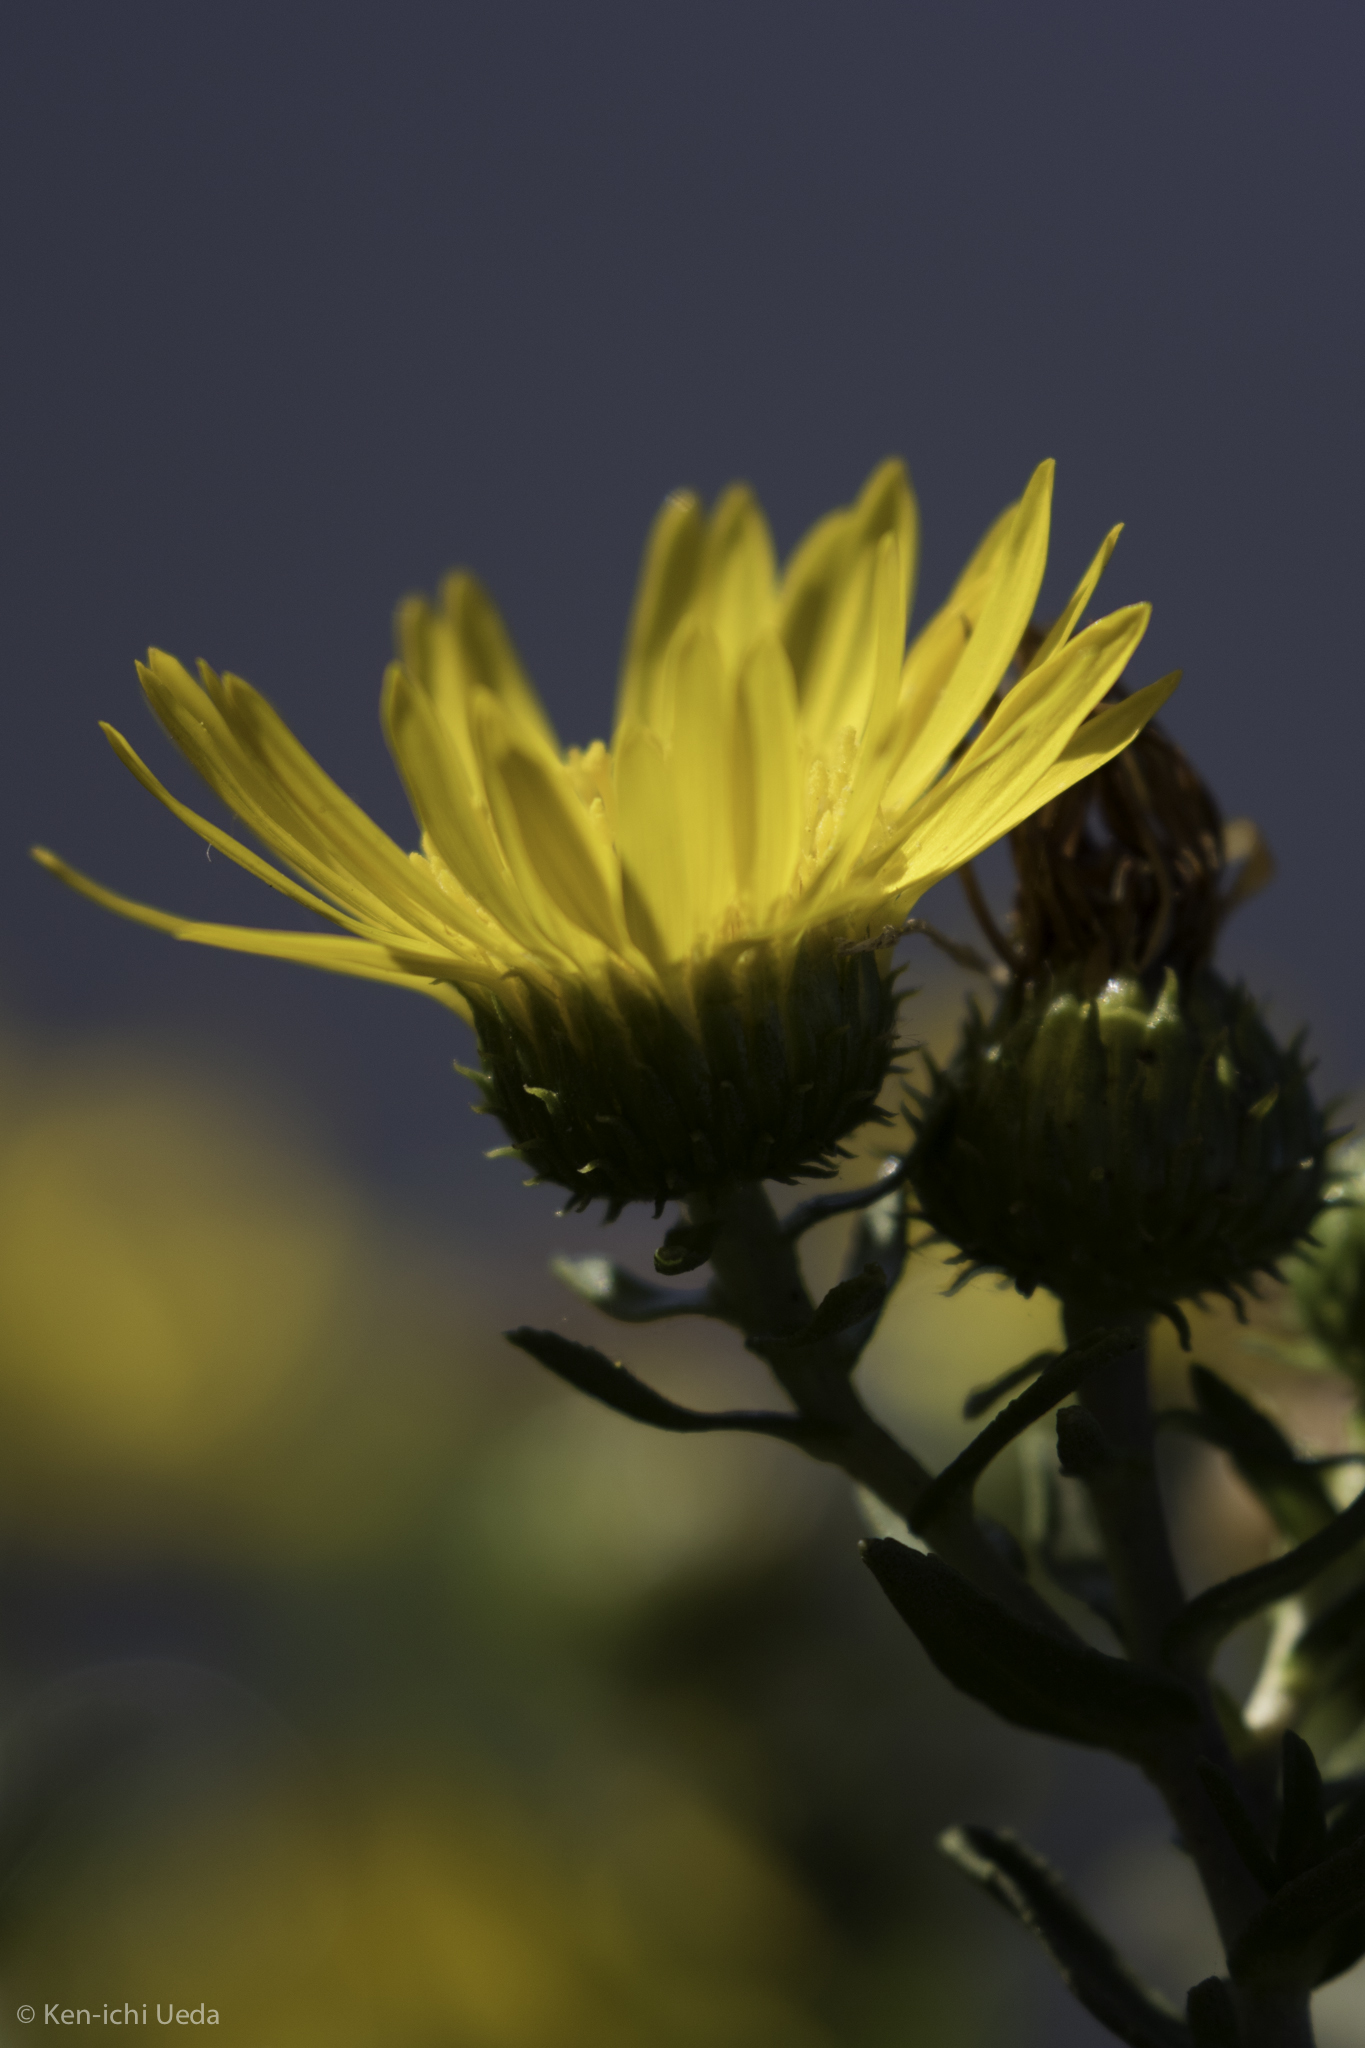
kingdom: Plantae
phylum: Tracheophyta
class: Magnoliopsida
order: Asterales
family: Asteraceae
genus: Grindelia
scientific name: Grindelia hirsutula
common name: Hairy gumweed
